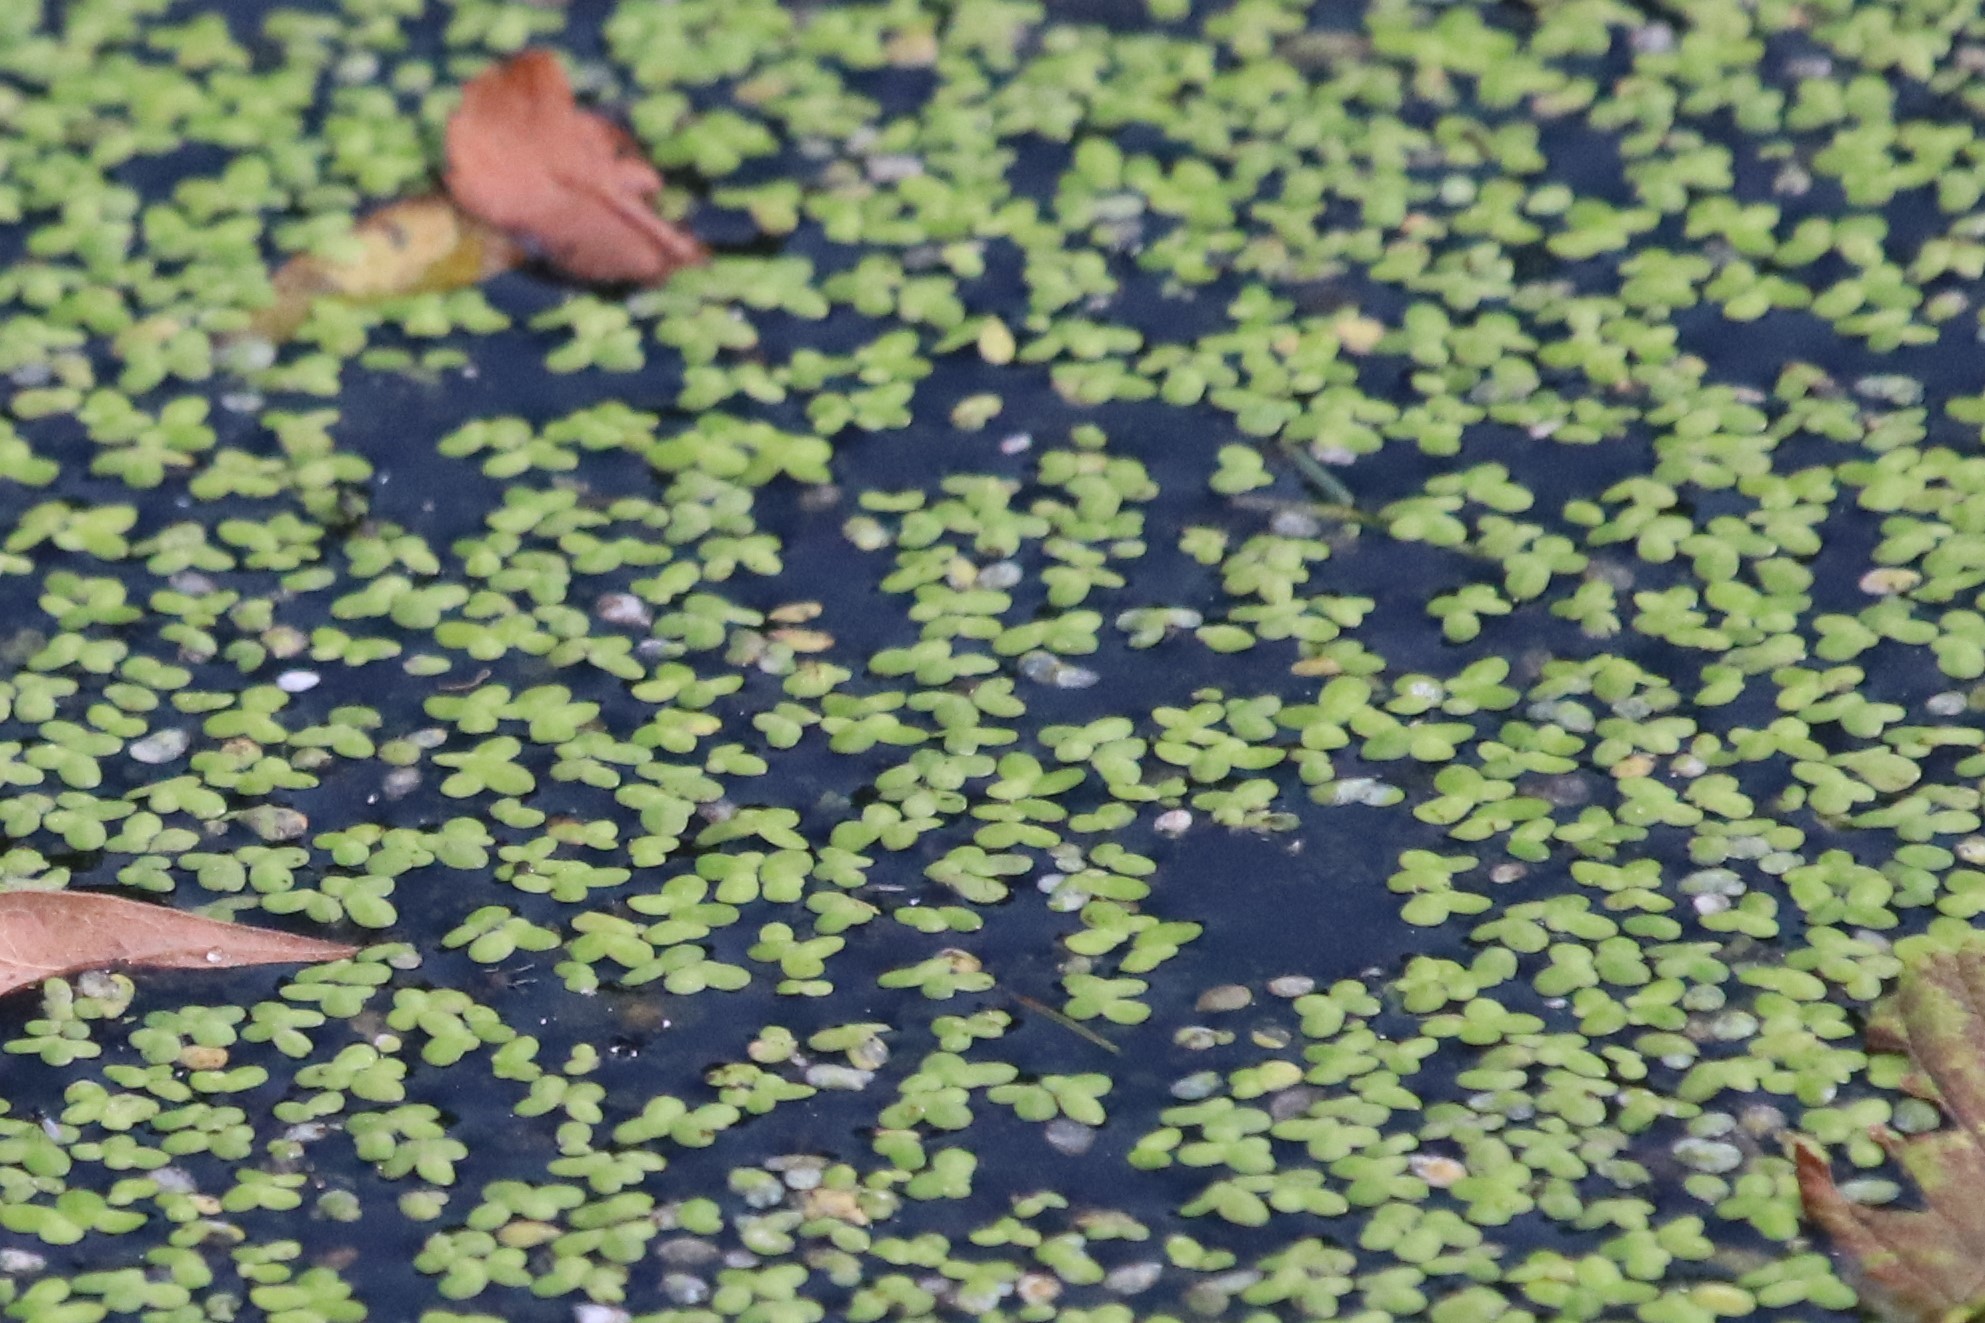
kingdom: Plantae
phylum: Tracheophyta
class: Liliopsida
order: Alismatales
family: Araceae
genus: Lemna
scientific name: Lemna minor
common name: Common duckweed
